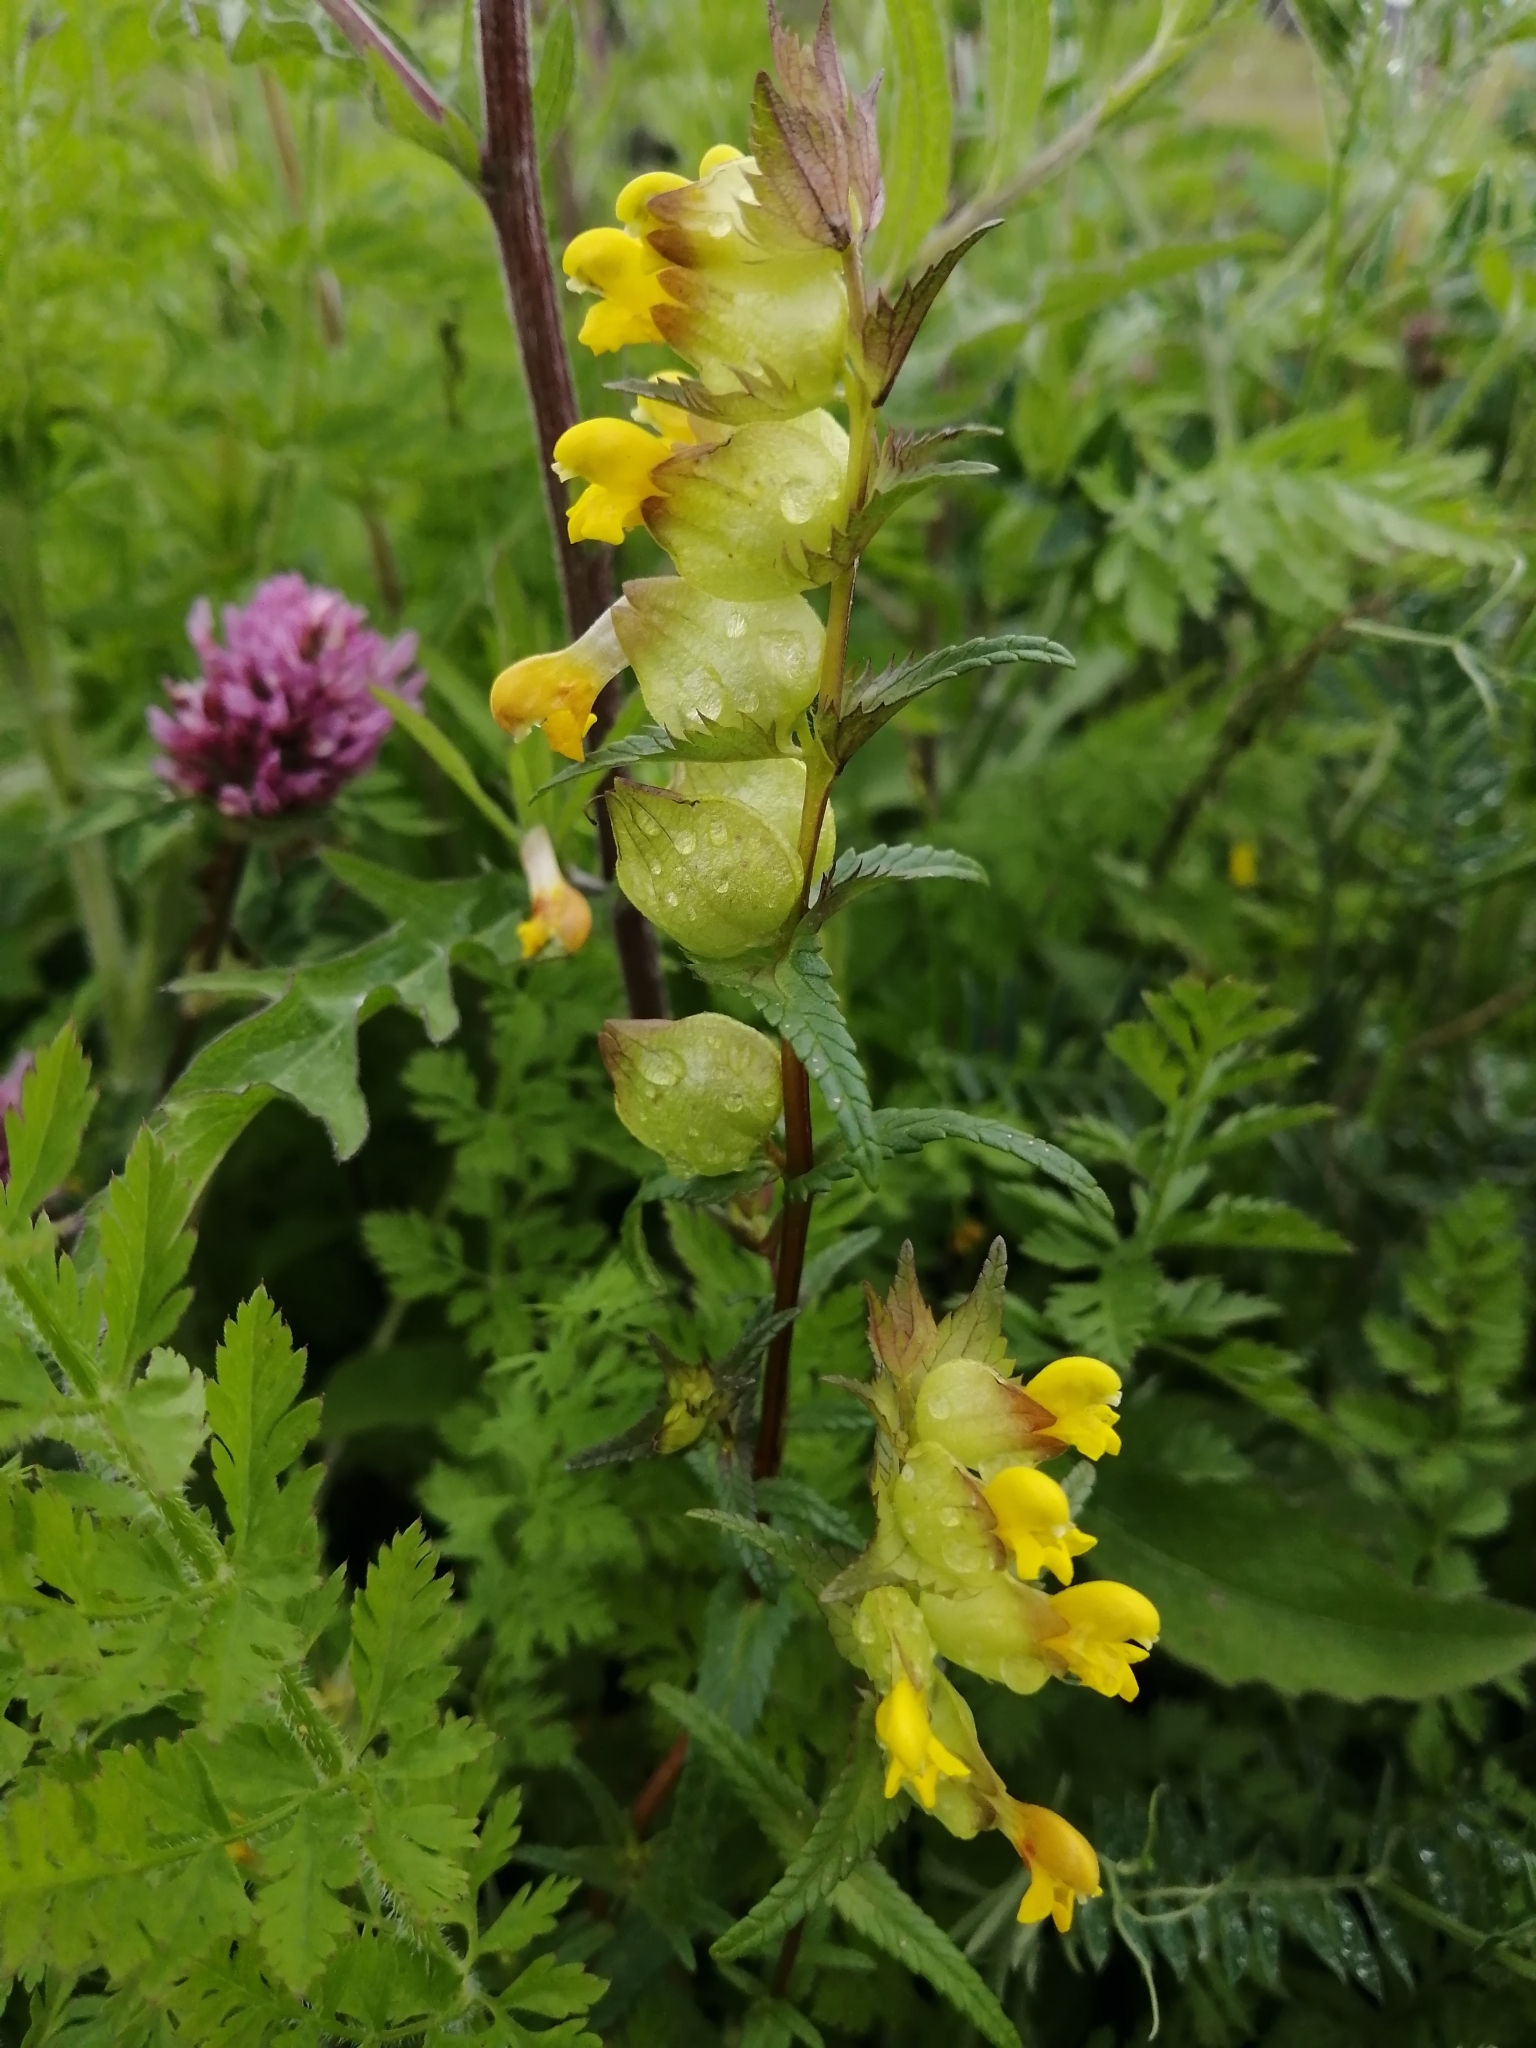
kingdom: Plantae
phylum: Tracheophyta
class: Magnoliopsida
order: Lamiales
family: Orobanchaceae
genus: Rhinanthus
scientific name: Rhinanthus minor
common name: Yellow-rattle
